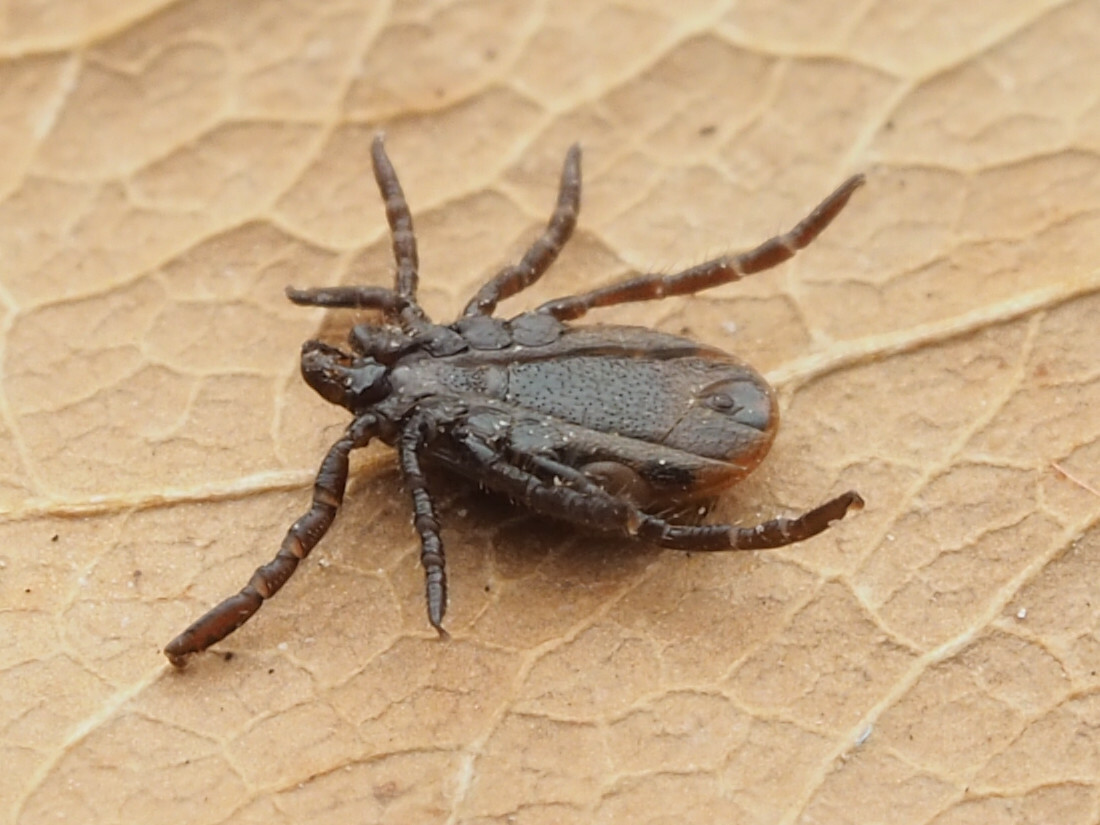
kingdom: Animalia
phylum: Arthropoda
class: Arachnida
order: Ixodida
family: Ixodidae
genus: Ixodes
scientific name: Ixodes scapularis
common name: Black legged tick
